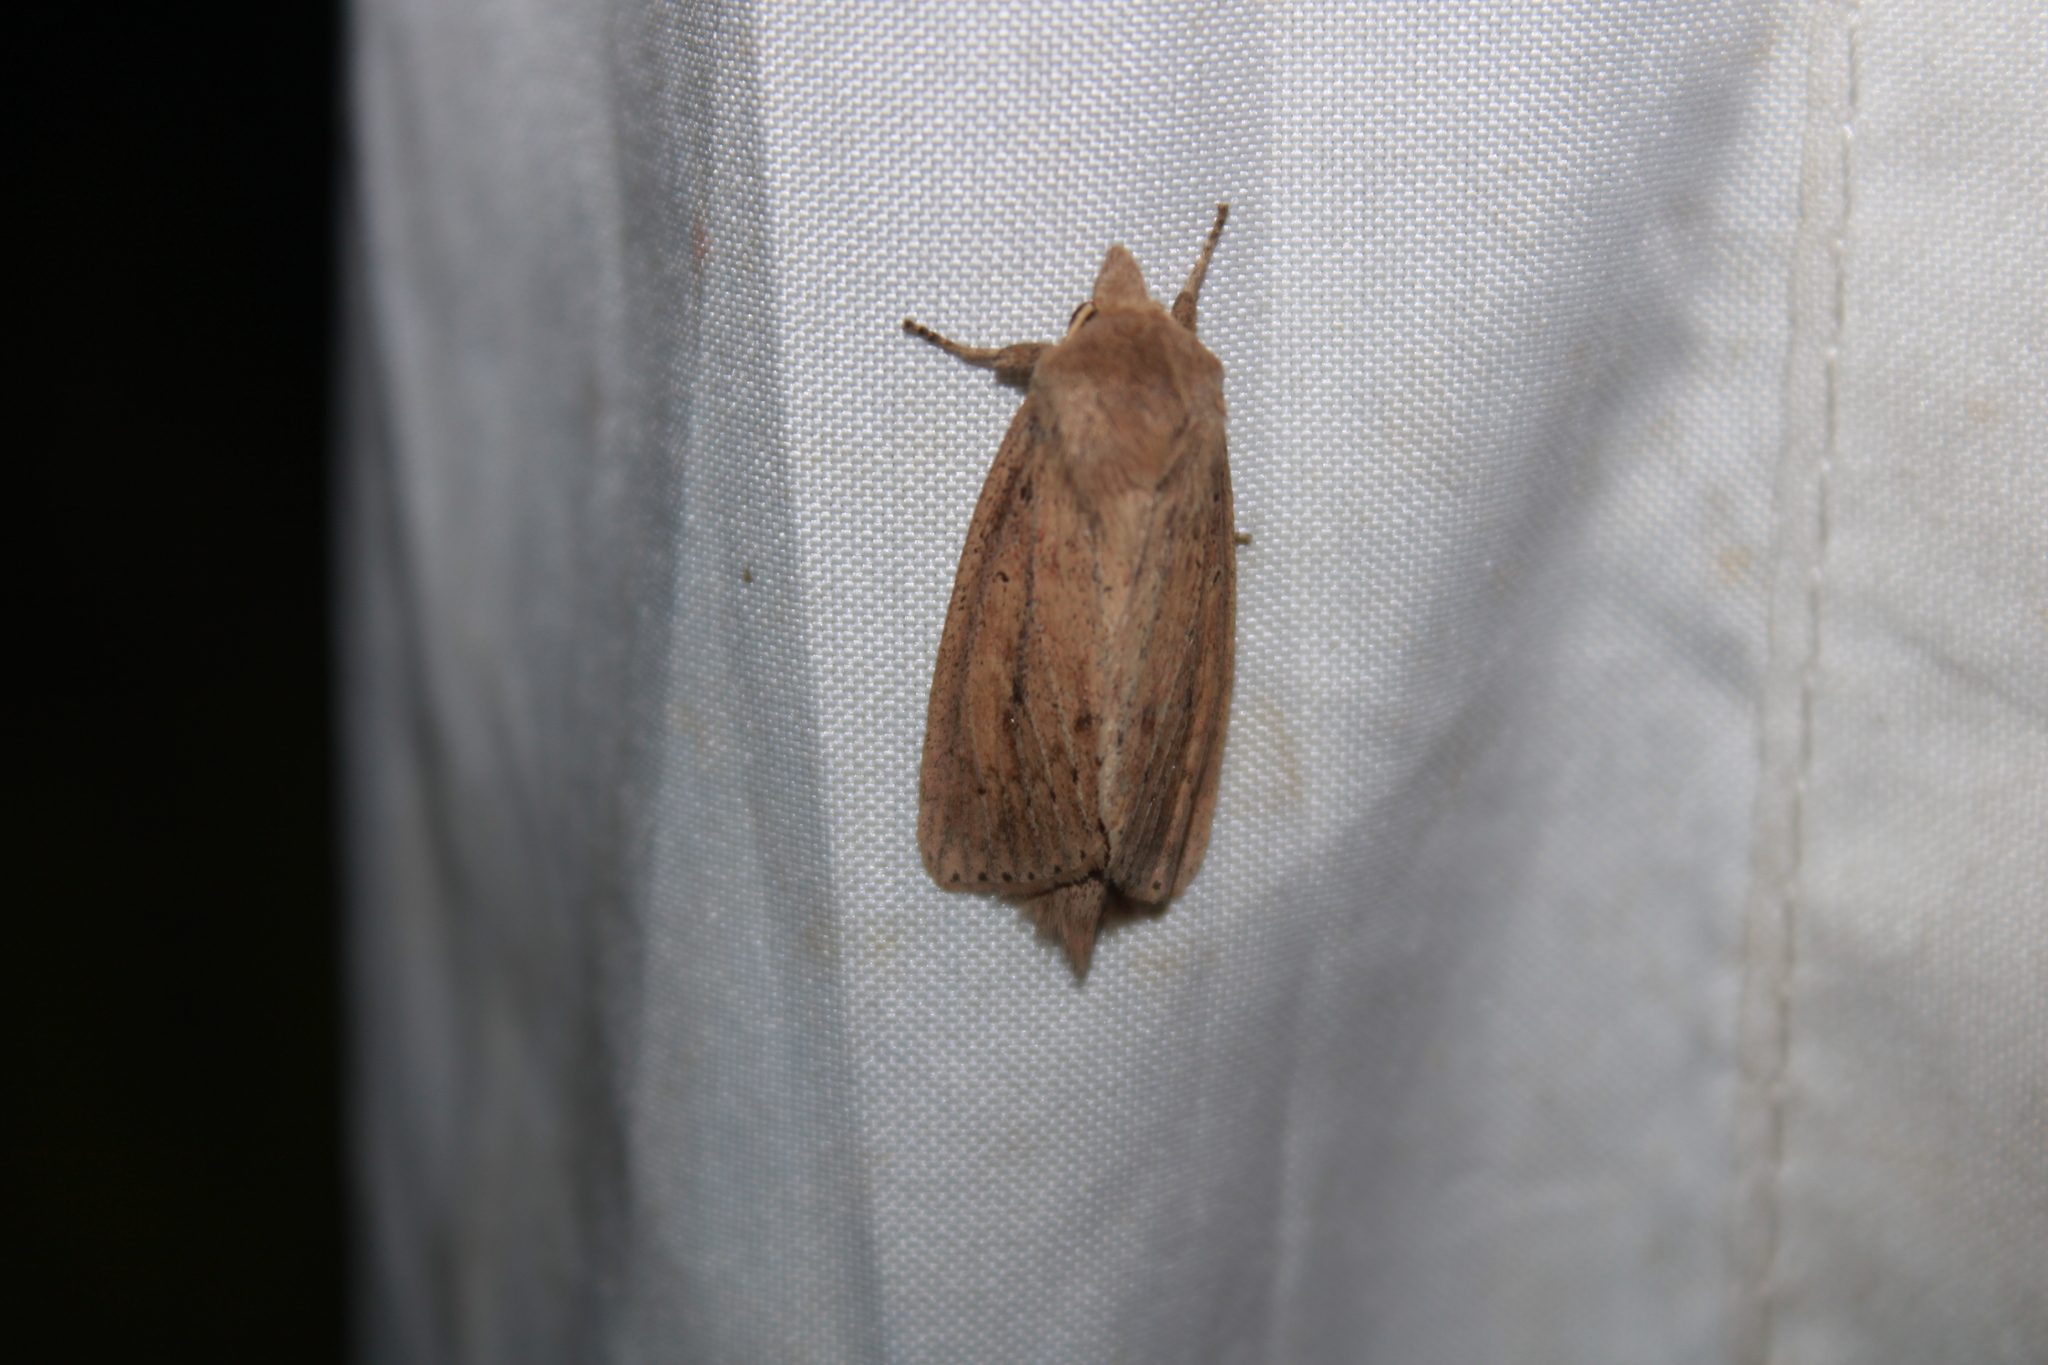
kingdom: Animalia
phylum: Arthropoda
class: Insecta
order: Lepidoptera
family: Noctuidae
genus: Globia
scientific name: Globia oblonga
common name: Oblong sedge borer moth
